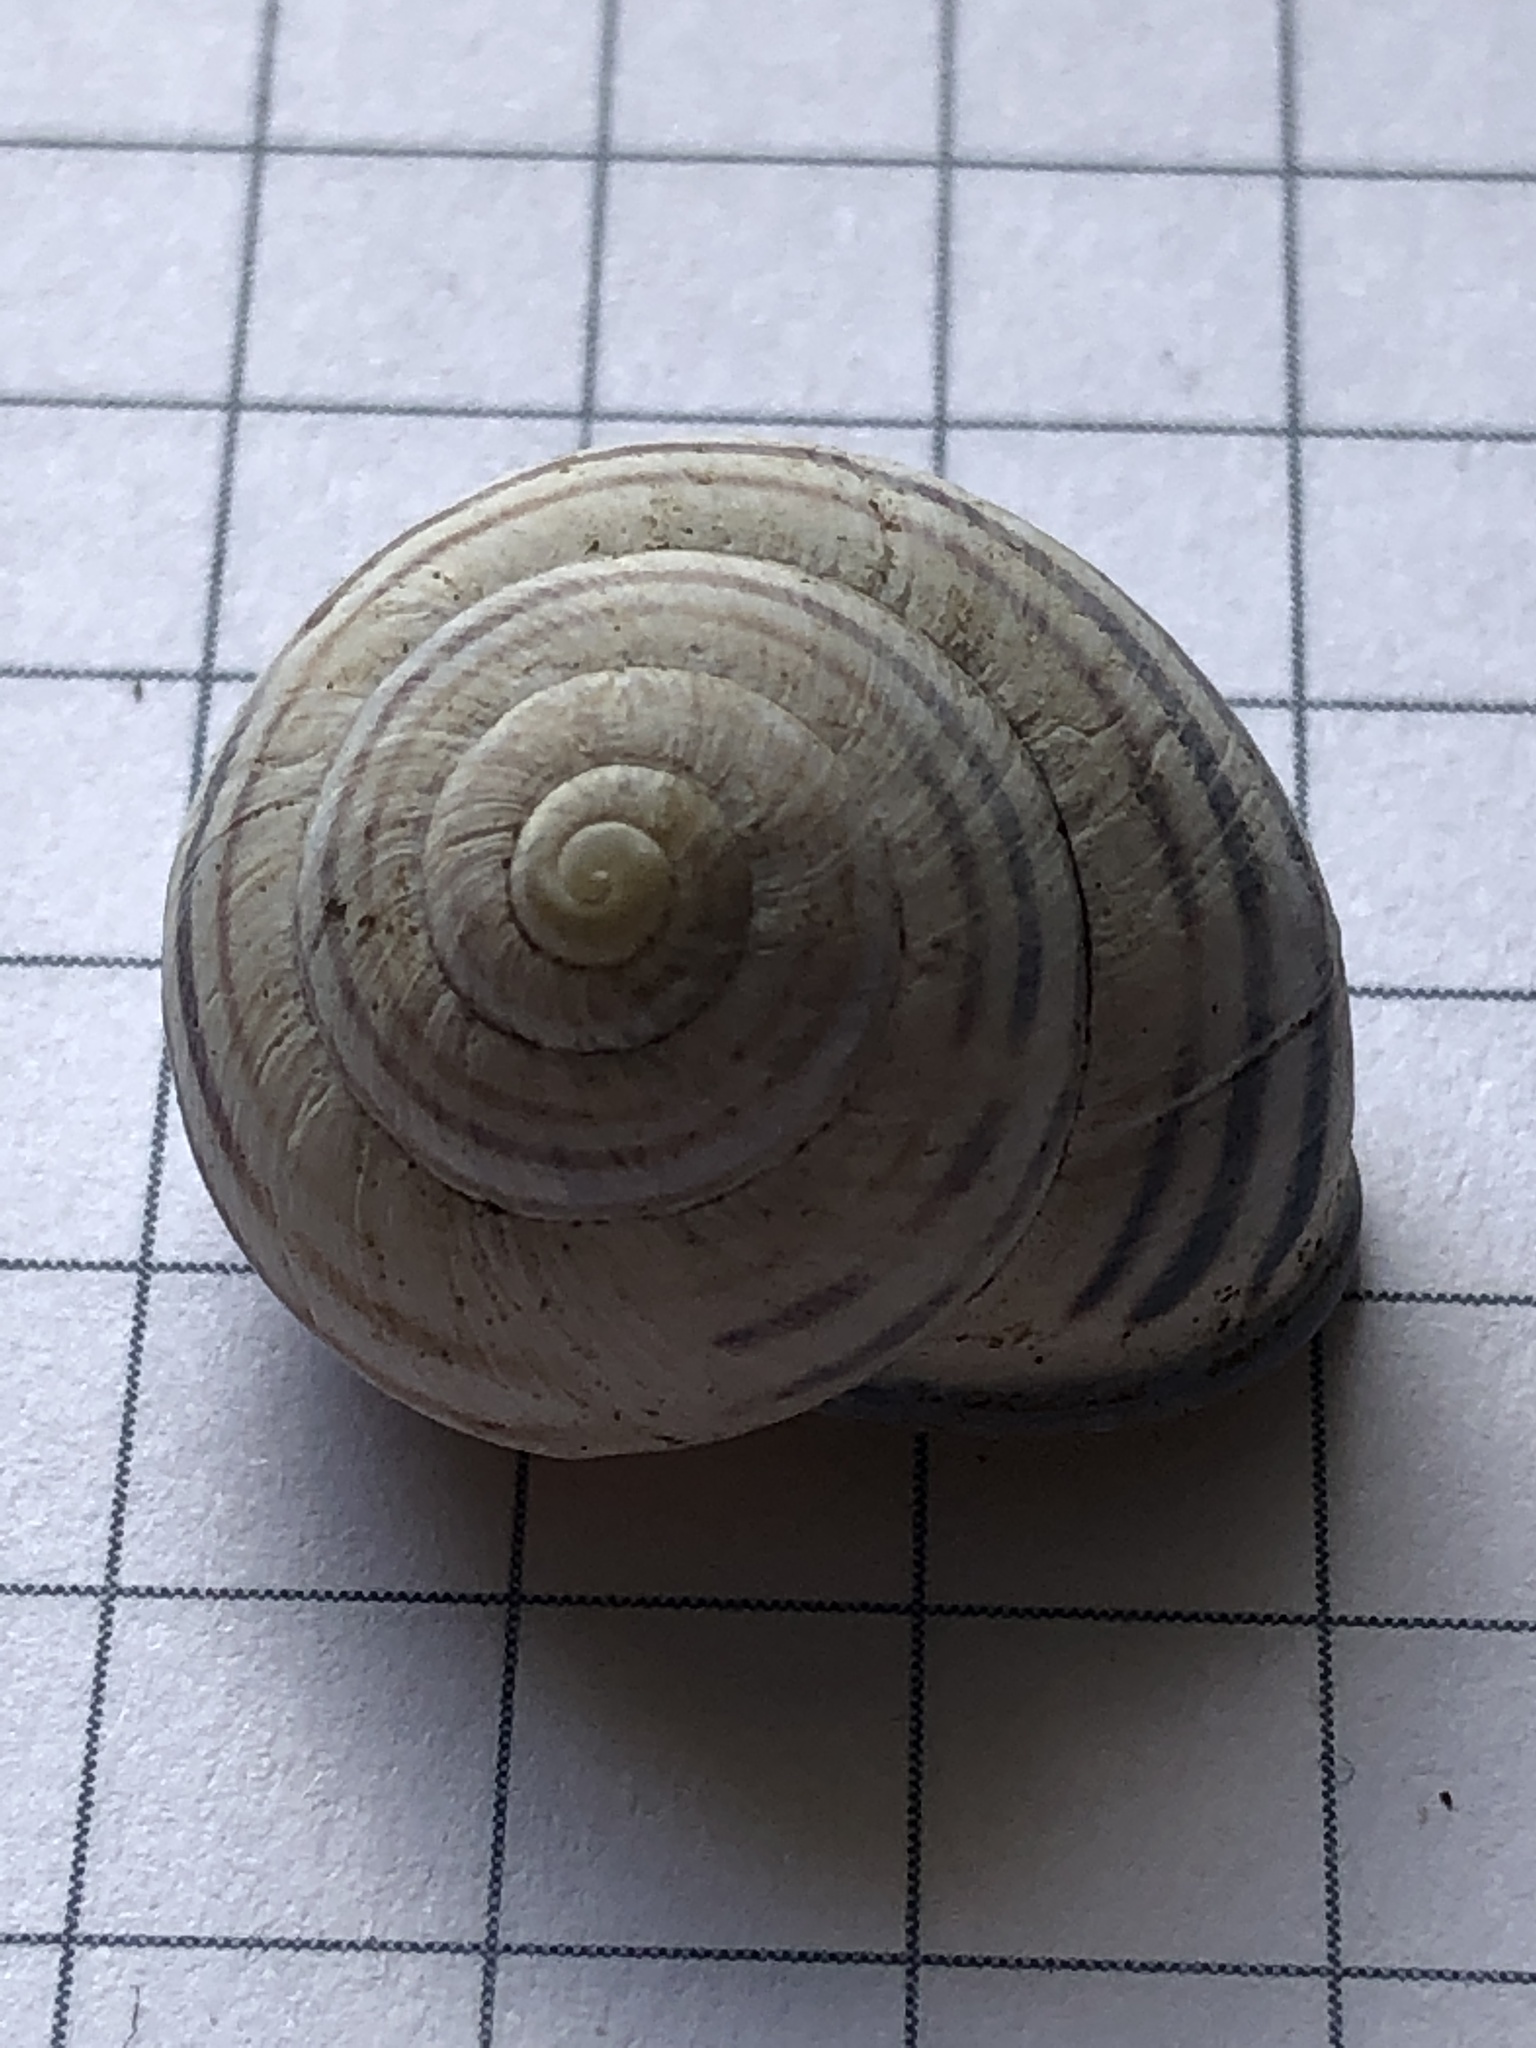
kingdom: Animalia
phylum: Mollusca
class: Gastropoda
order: Stylommatophora
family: Helicidae
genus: Cepaea
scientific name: Cepaea nemoralis
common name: Grovesnail
